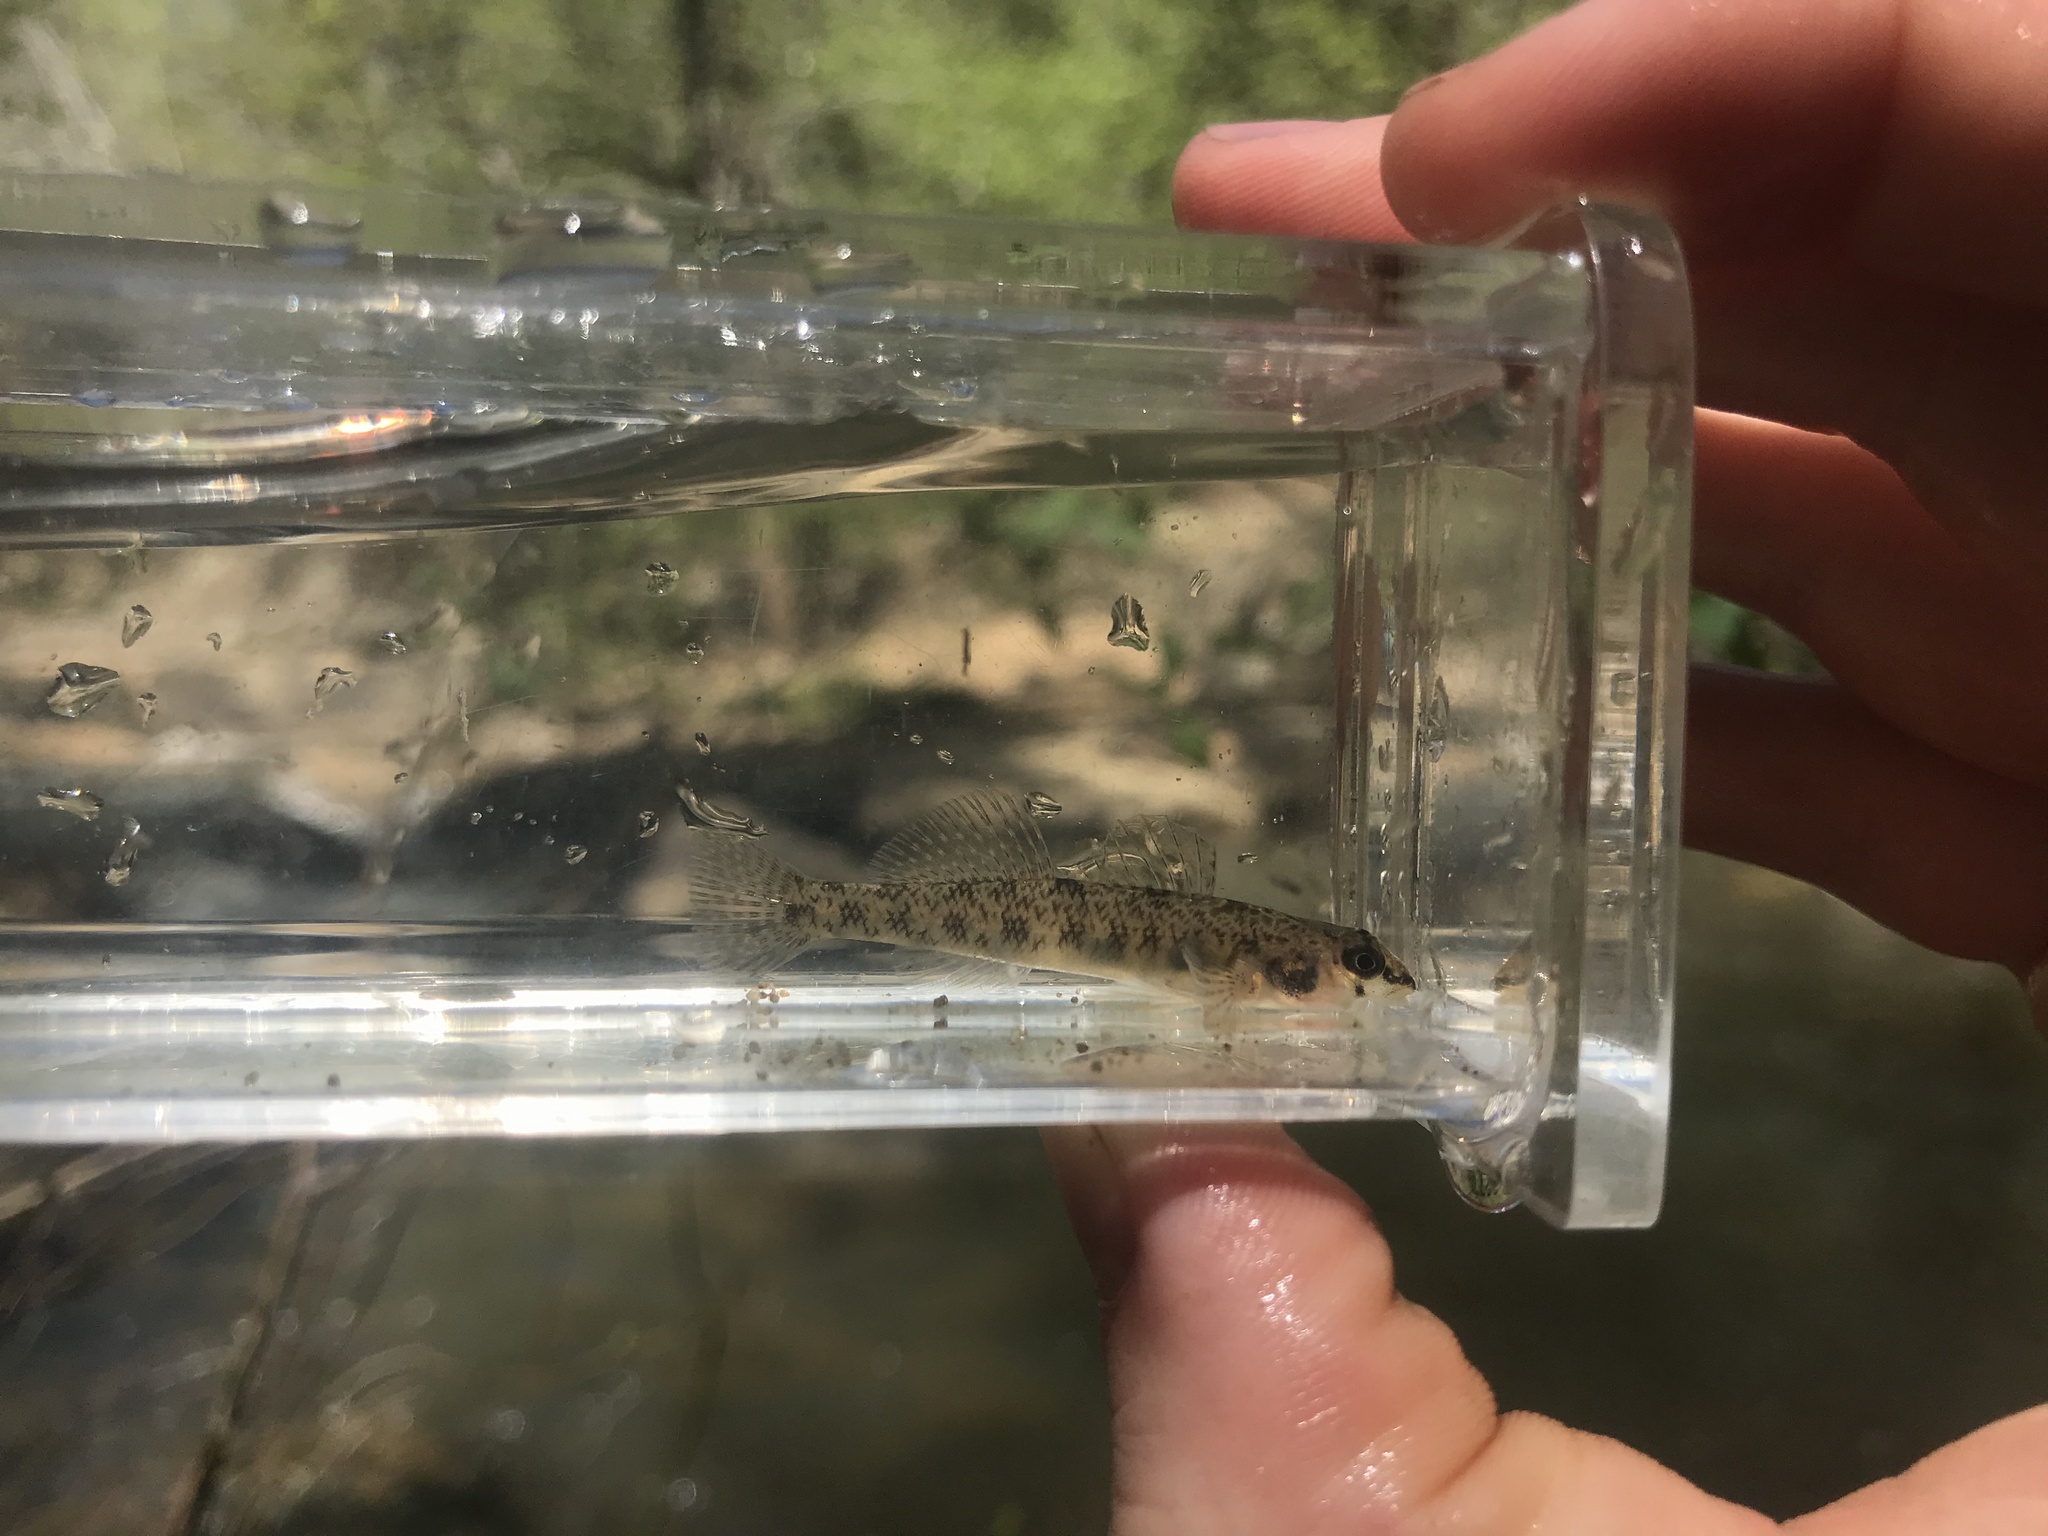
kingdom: Animalia
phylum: Chordata
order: Perciformes
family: Percidae
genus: Etheostoma
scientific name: Etheostoma olmstedi
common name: Tessellated darter
